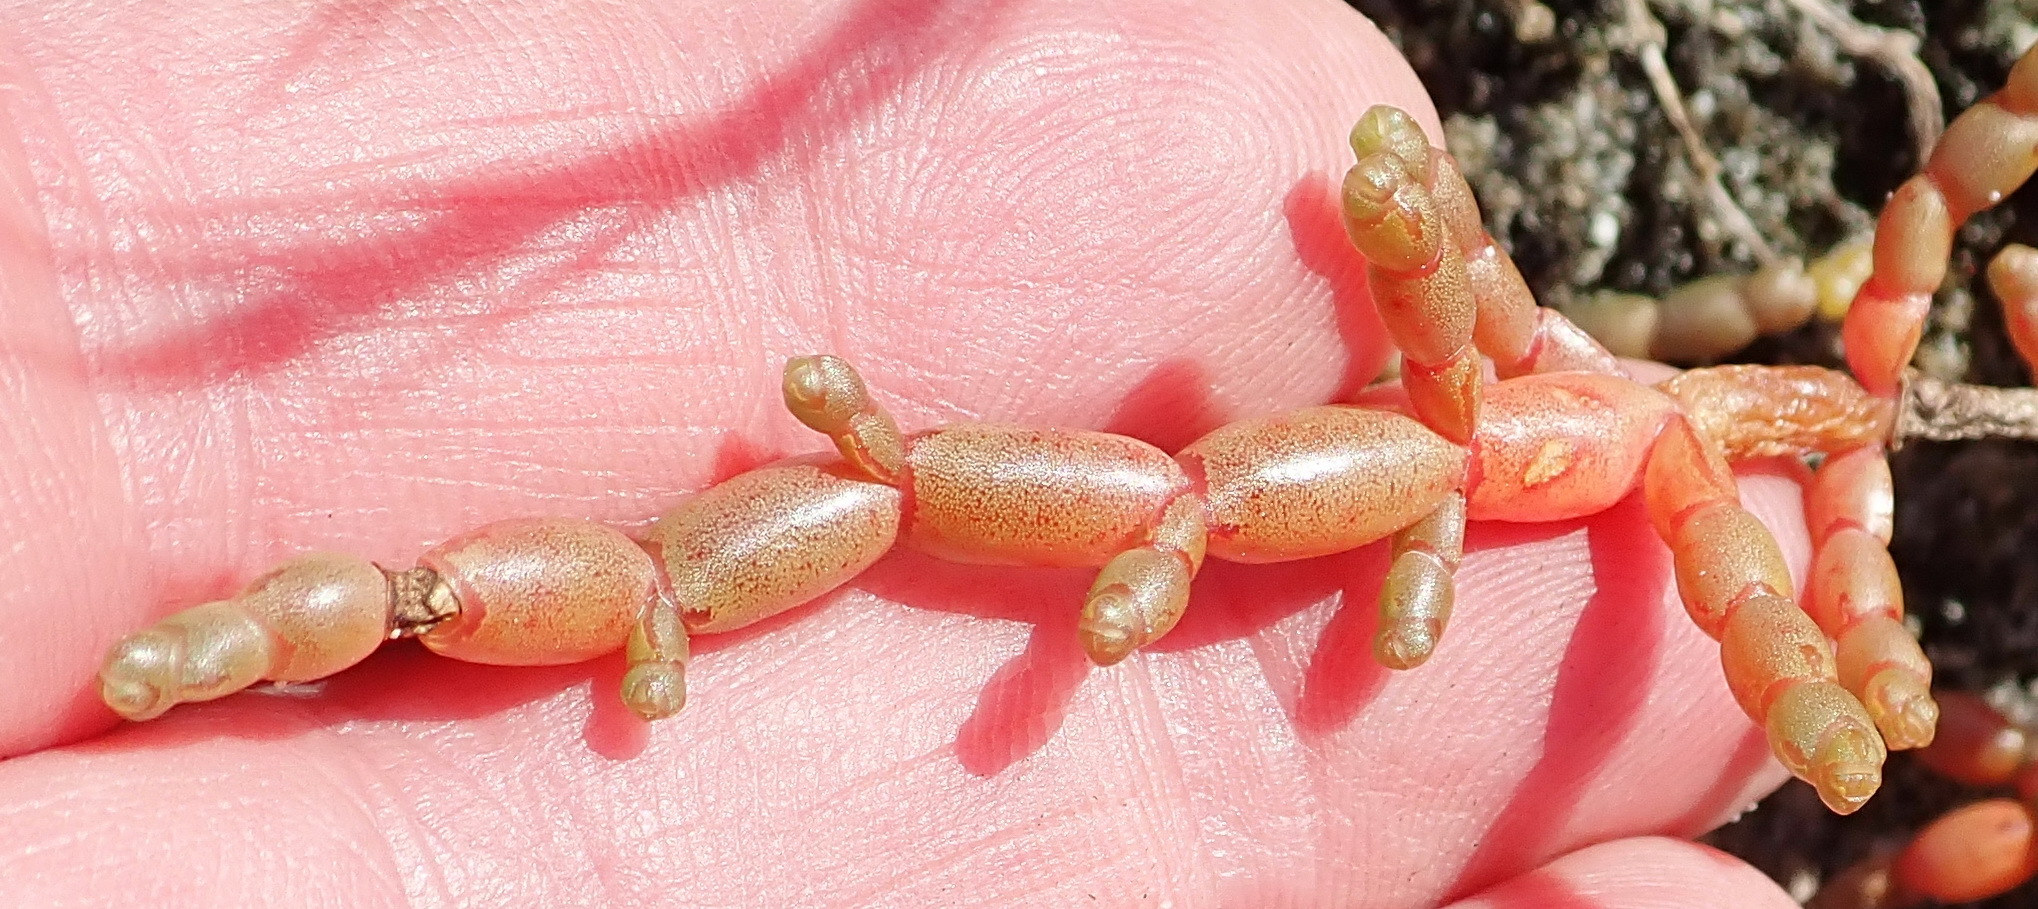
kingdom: Plantae
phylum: Tracheophyta
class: Magnoliopsida
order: Caryophyllales
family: Amaranthaceae
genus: Salicornia
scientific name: Salicornia tegetaria
